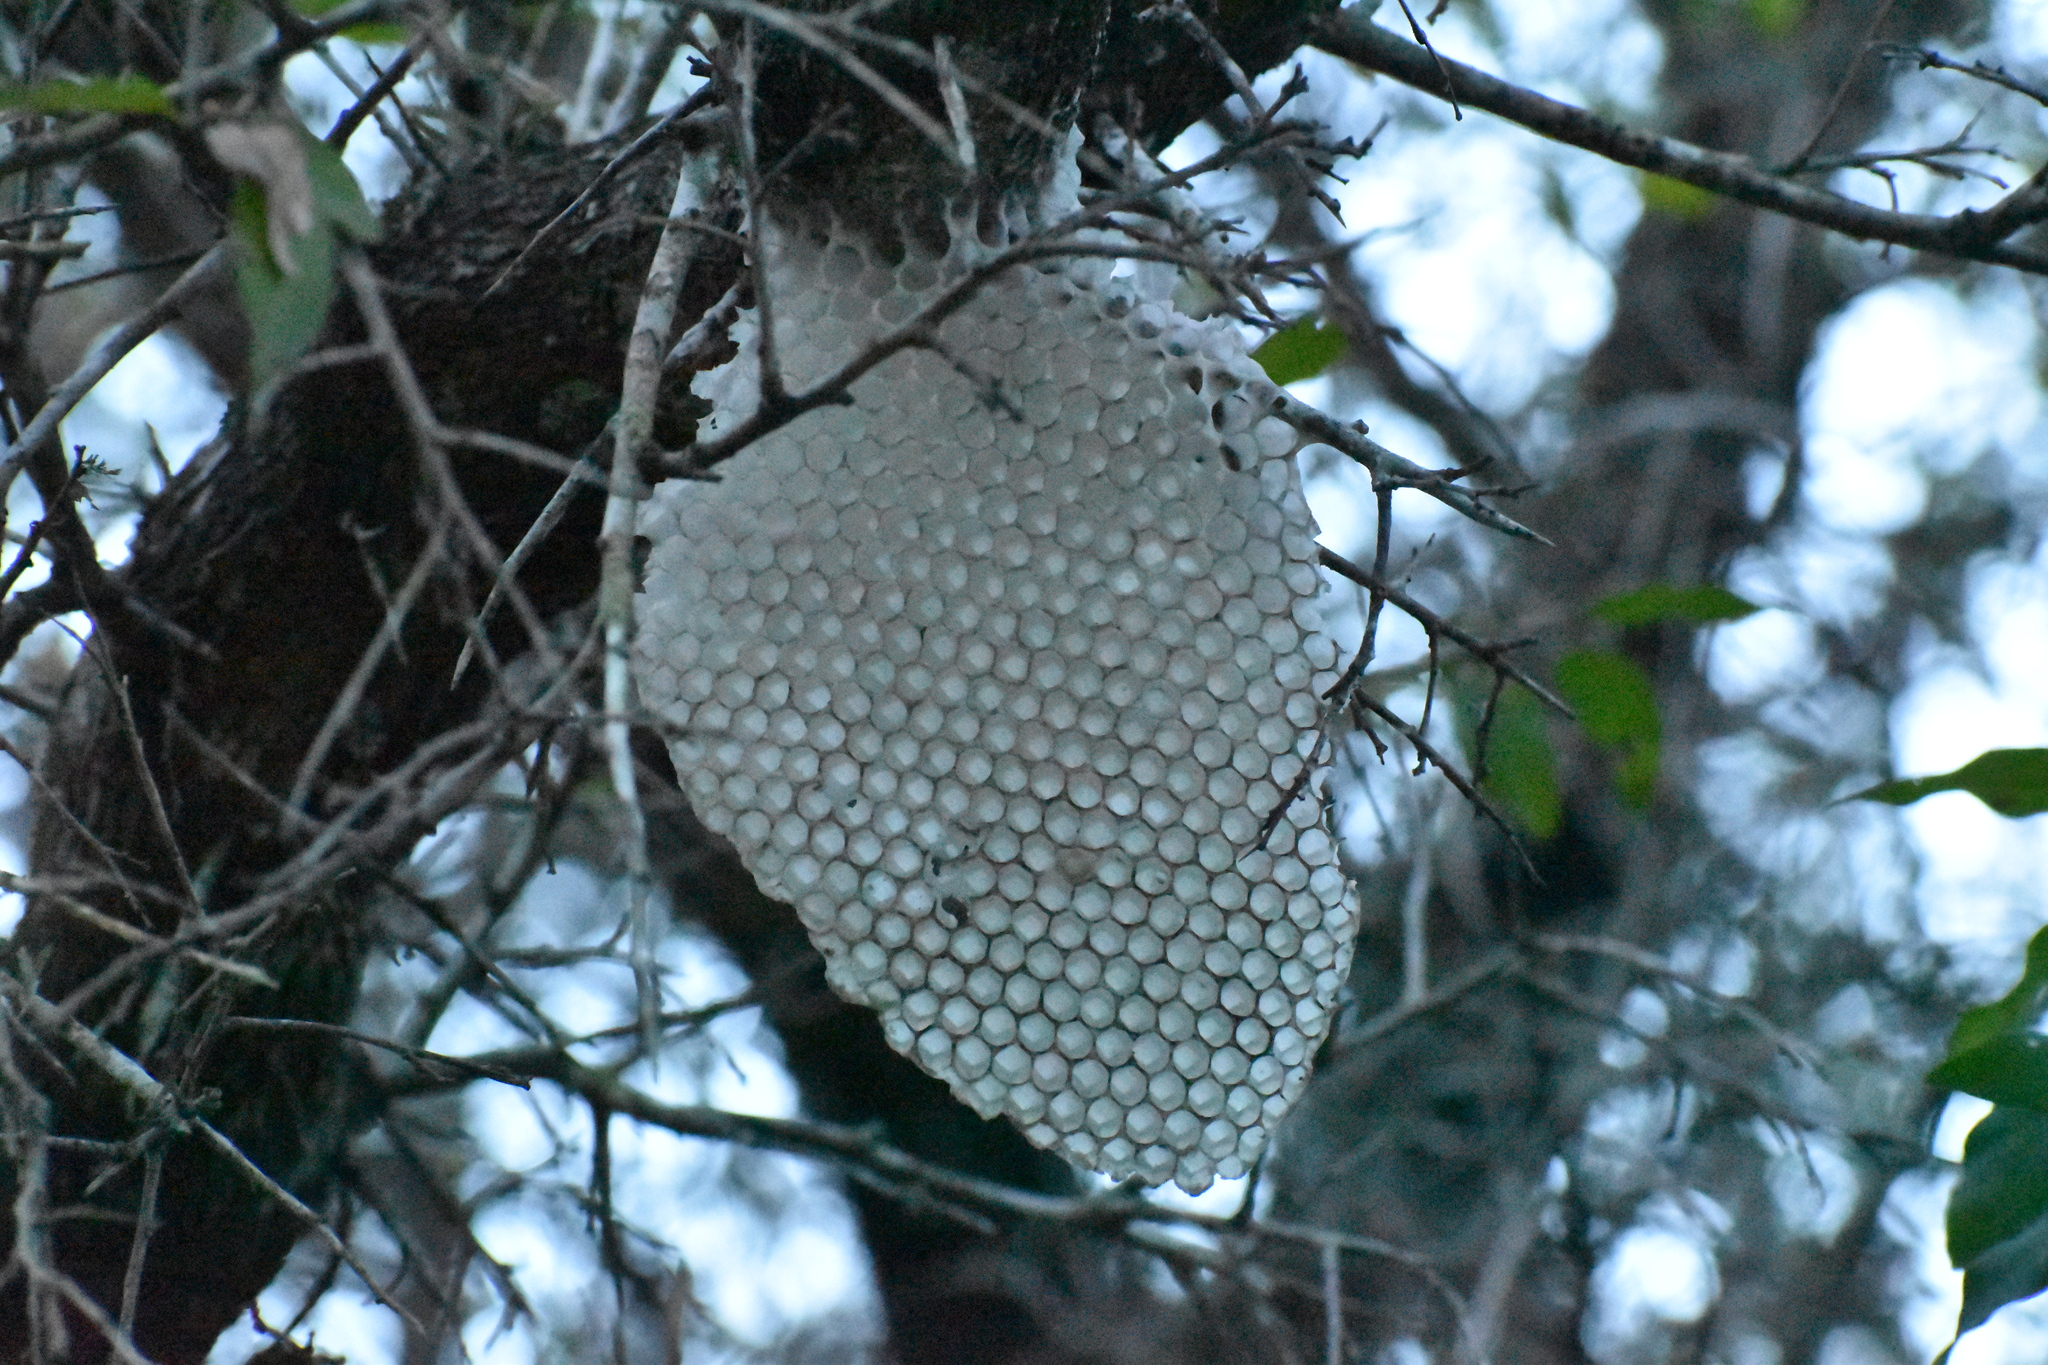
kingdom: Animalia
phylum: Arthropoda
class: Insecta
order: Hymenoptera
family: Apidae
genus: Apis
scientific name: Apis mellifera
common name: Honey bee
